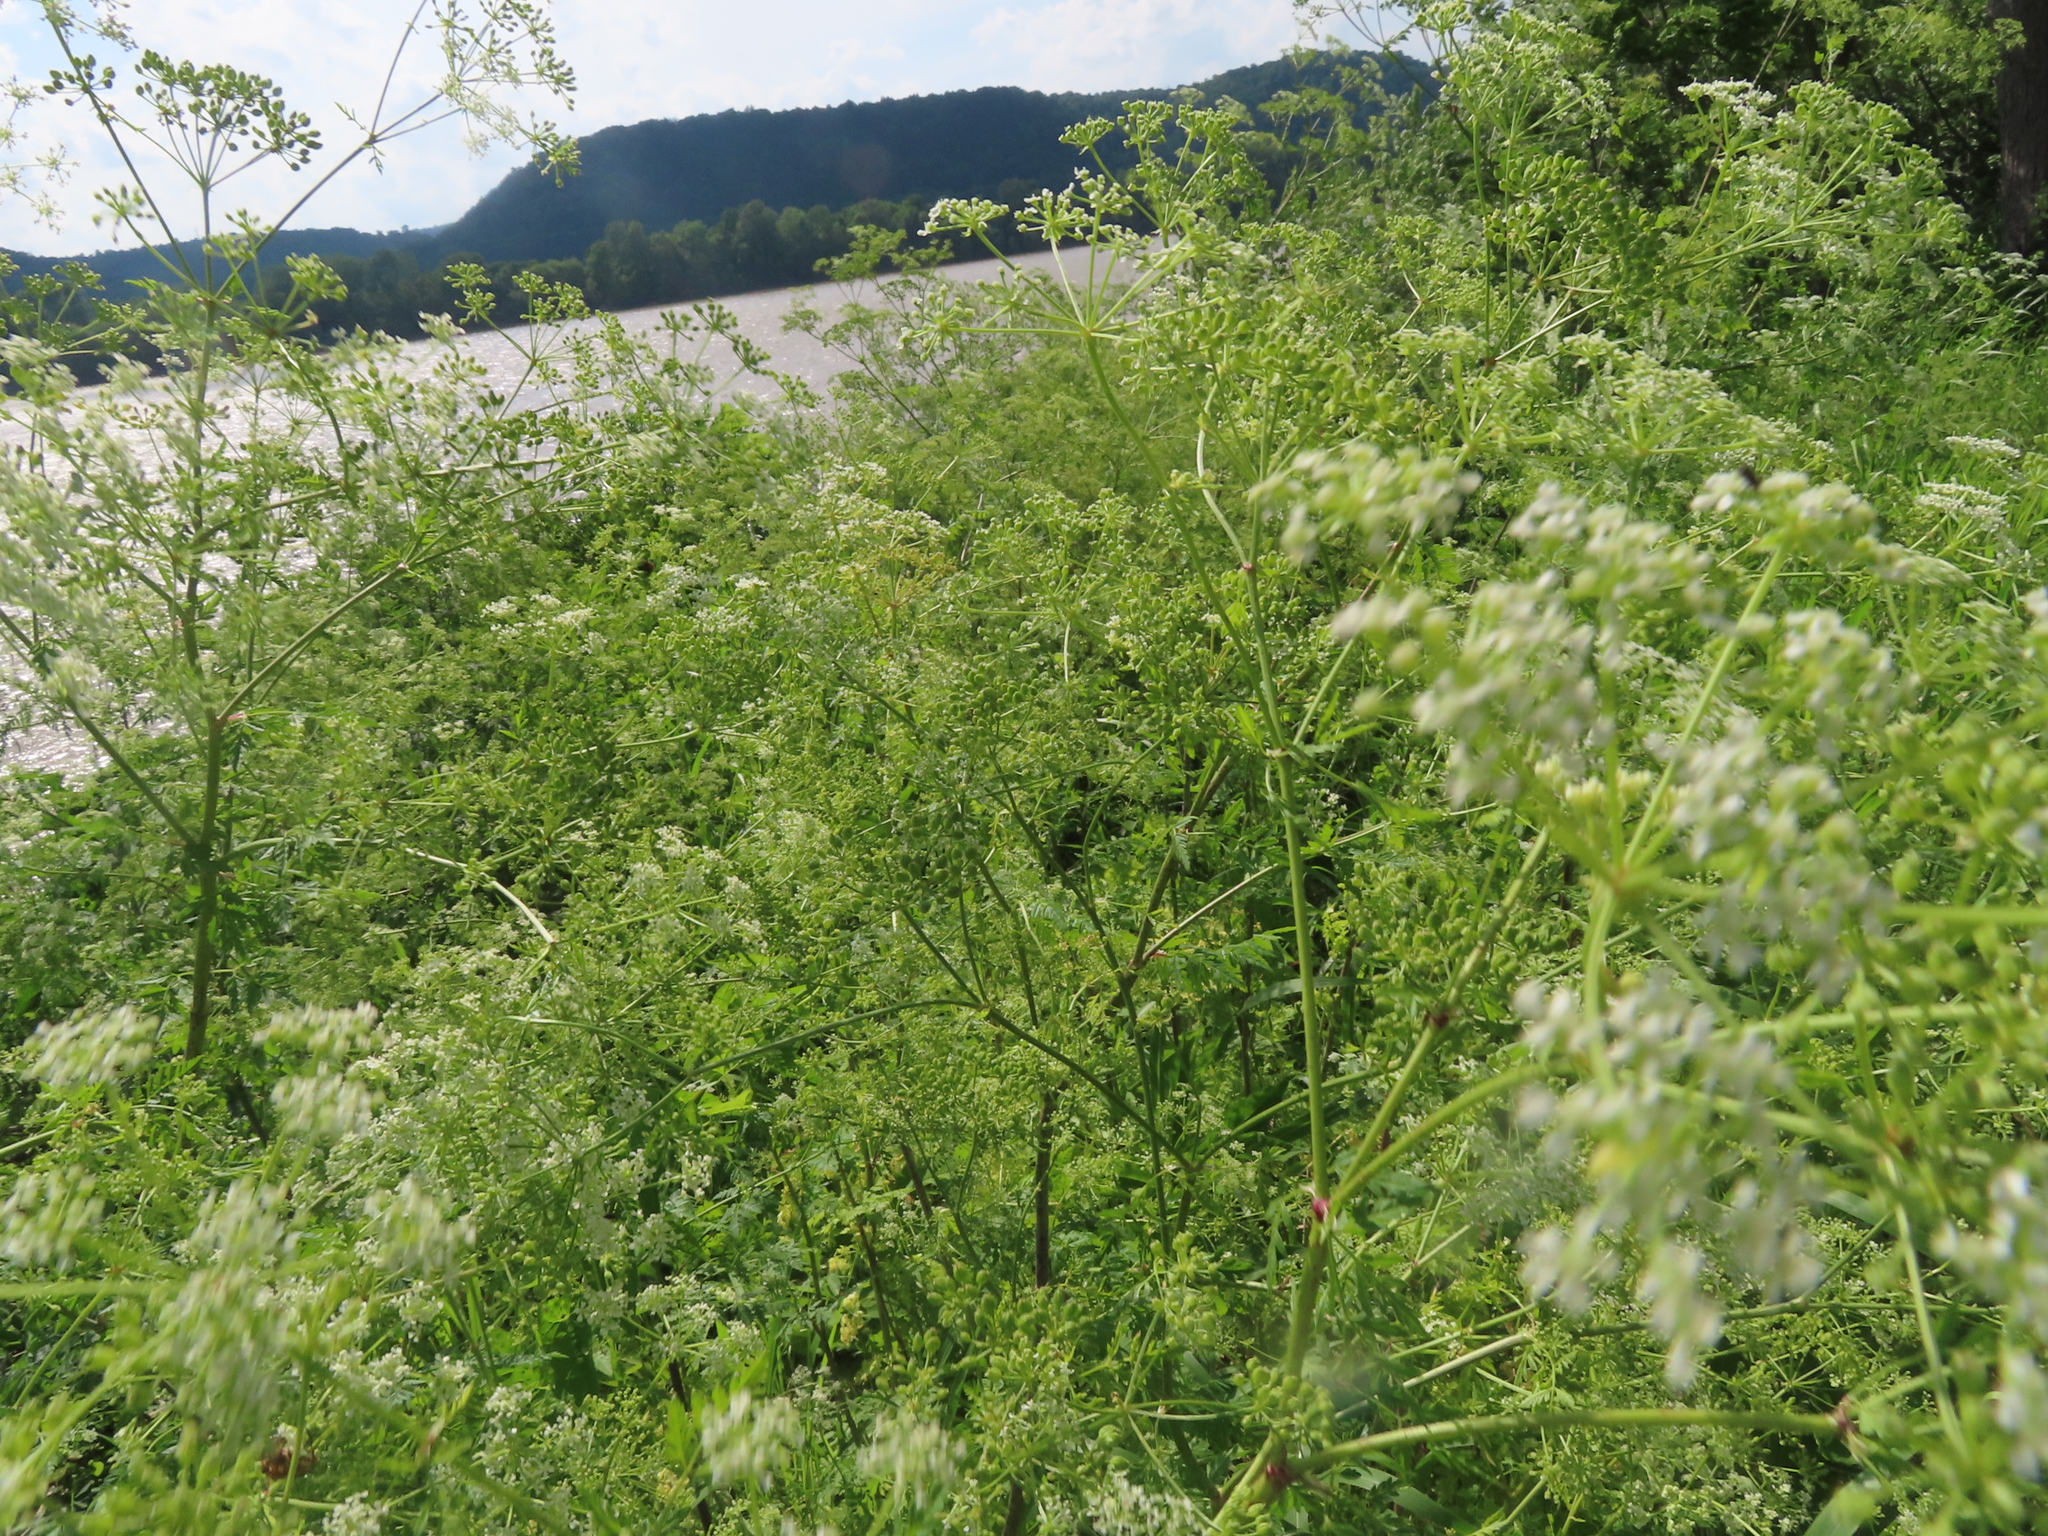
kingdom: Plantae
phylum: Tracheophyta
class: Magnoliopsida
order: Apiales
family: Apiaceae
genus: Conium
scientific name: Conium maculatum
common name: Hemlock
